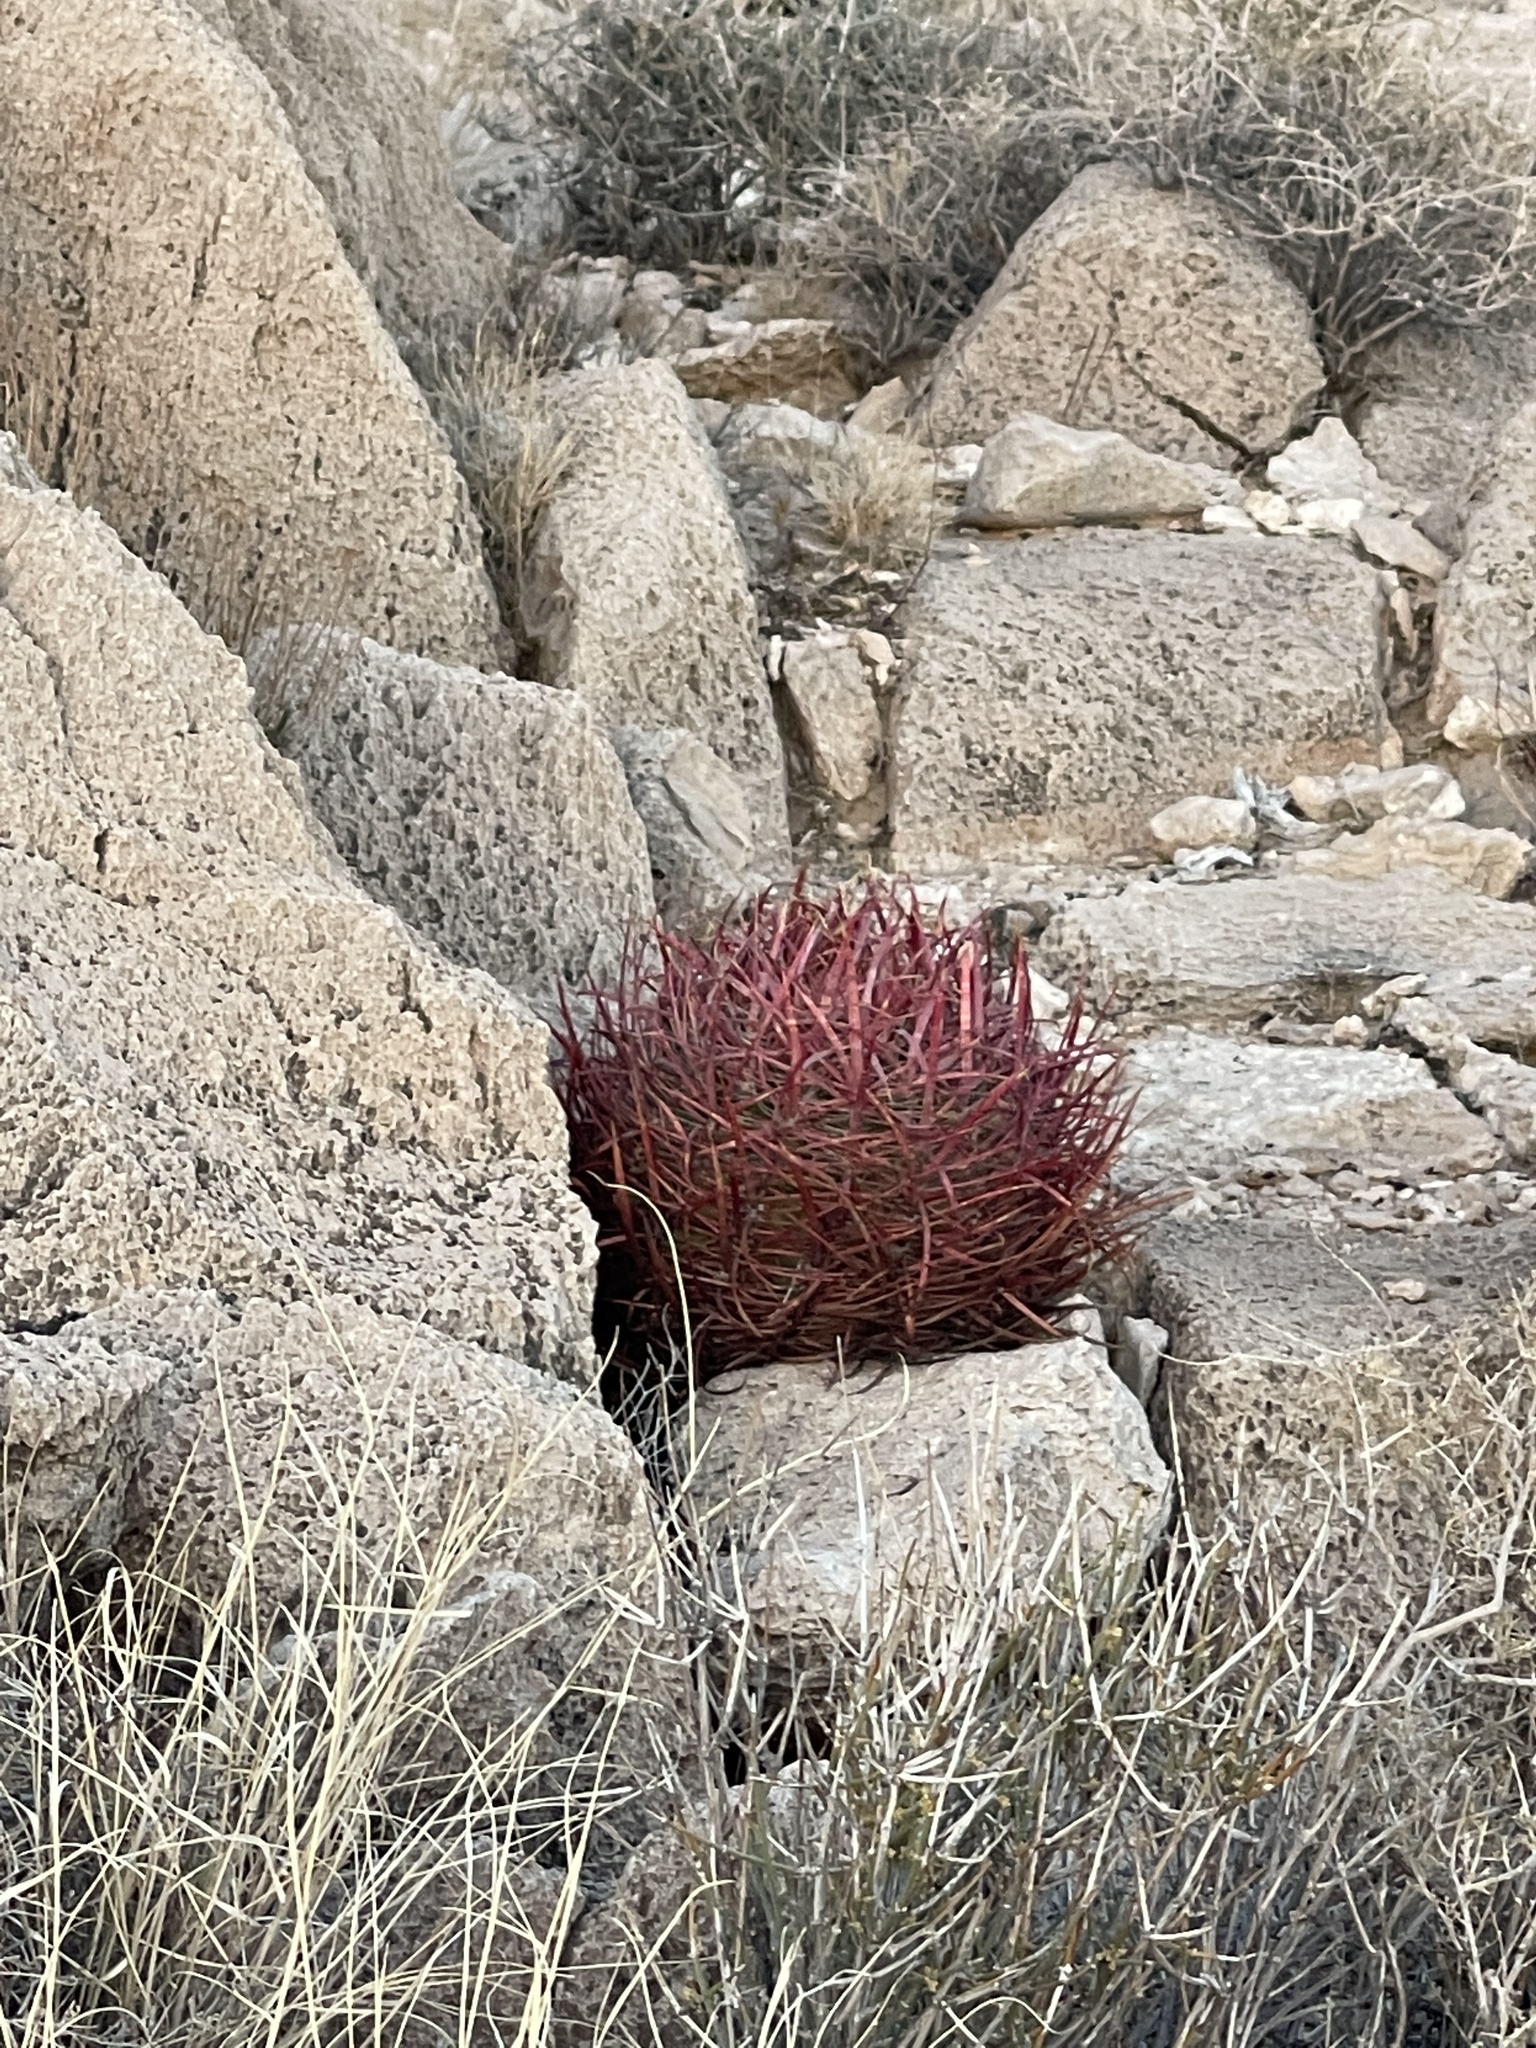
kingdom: Plantae
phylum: Tracheophyta
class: Magnoliopsida
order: Caryophyllales
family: Cactaceae
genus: Ferocactus
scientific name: Ferocactus cylindraceus
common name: California barrel cactus
